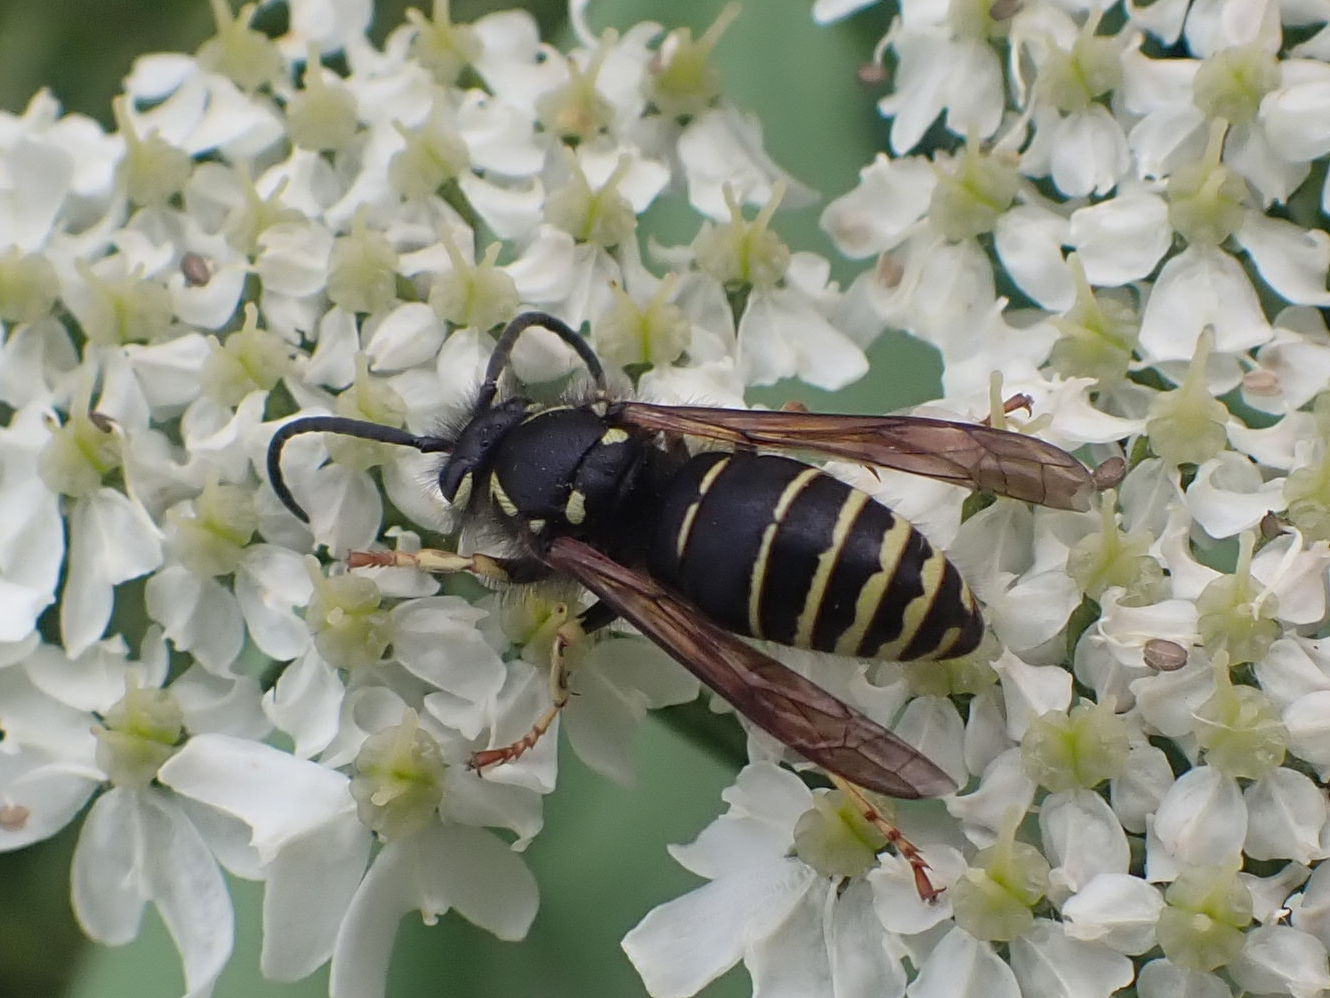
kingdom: Animalia
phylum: Arthropoda
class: Insecta
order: Hymenoptera
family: Vespidae
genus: Dolichovespula
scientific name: Dolichovespula adulterina
